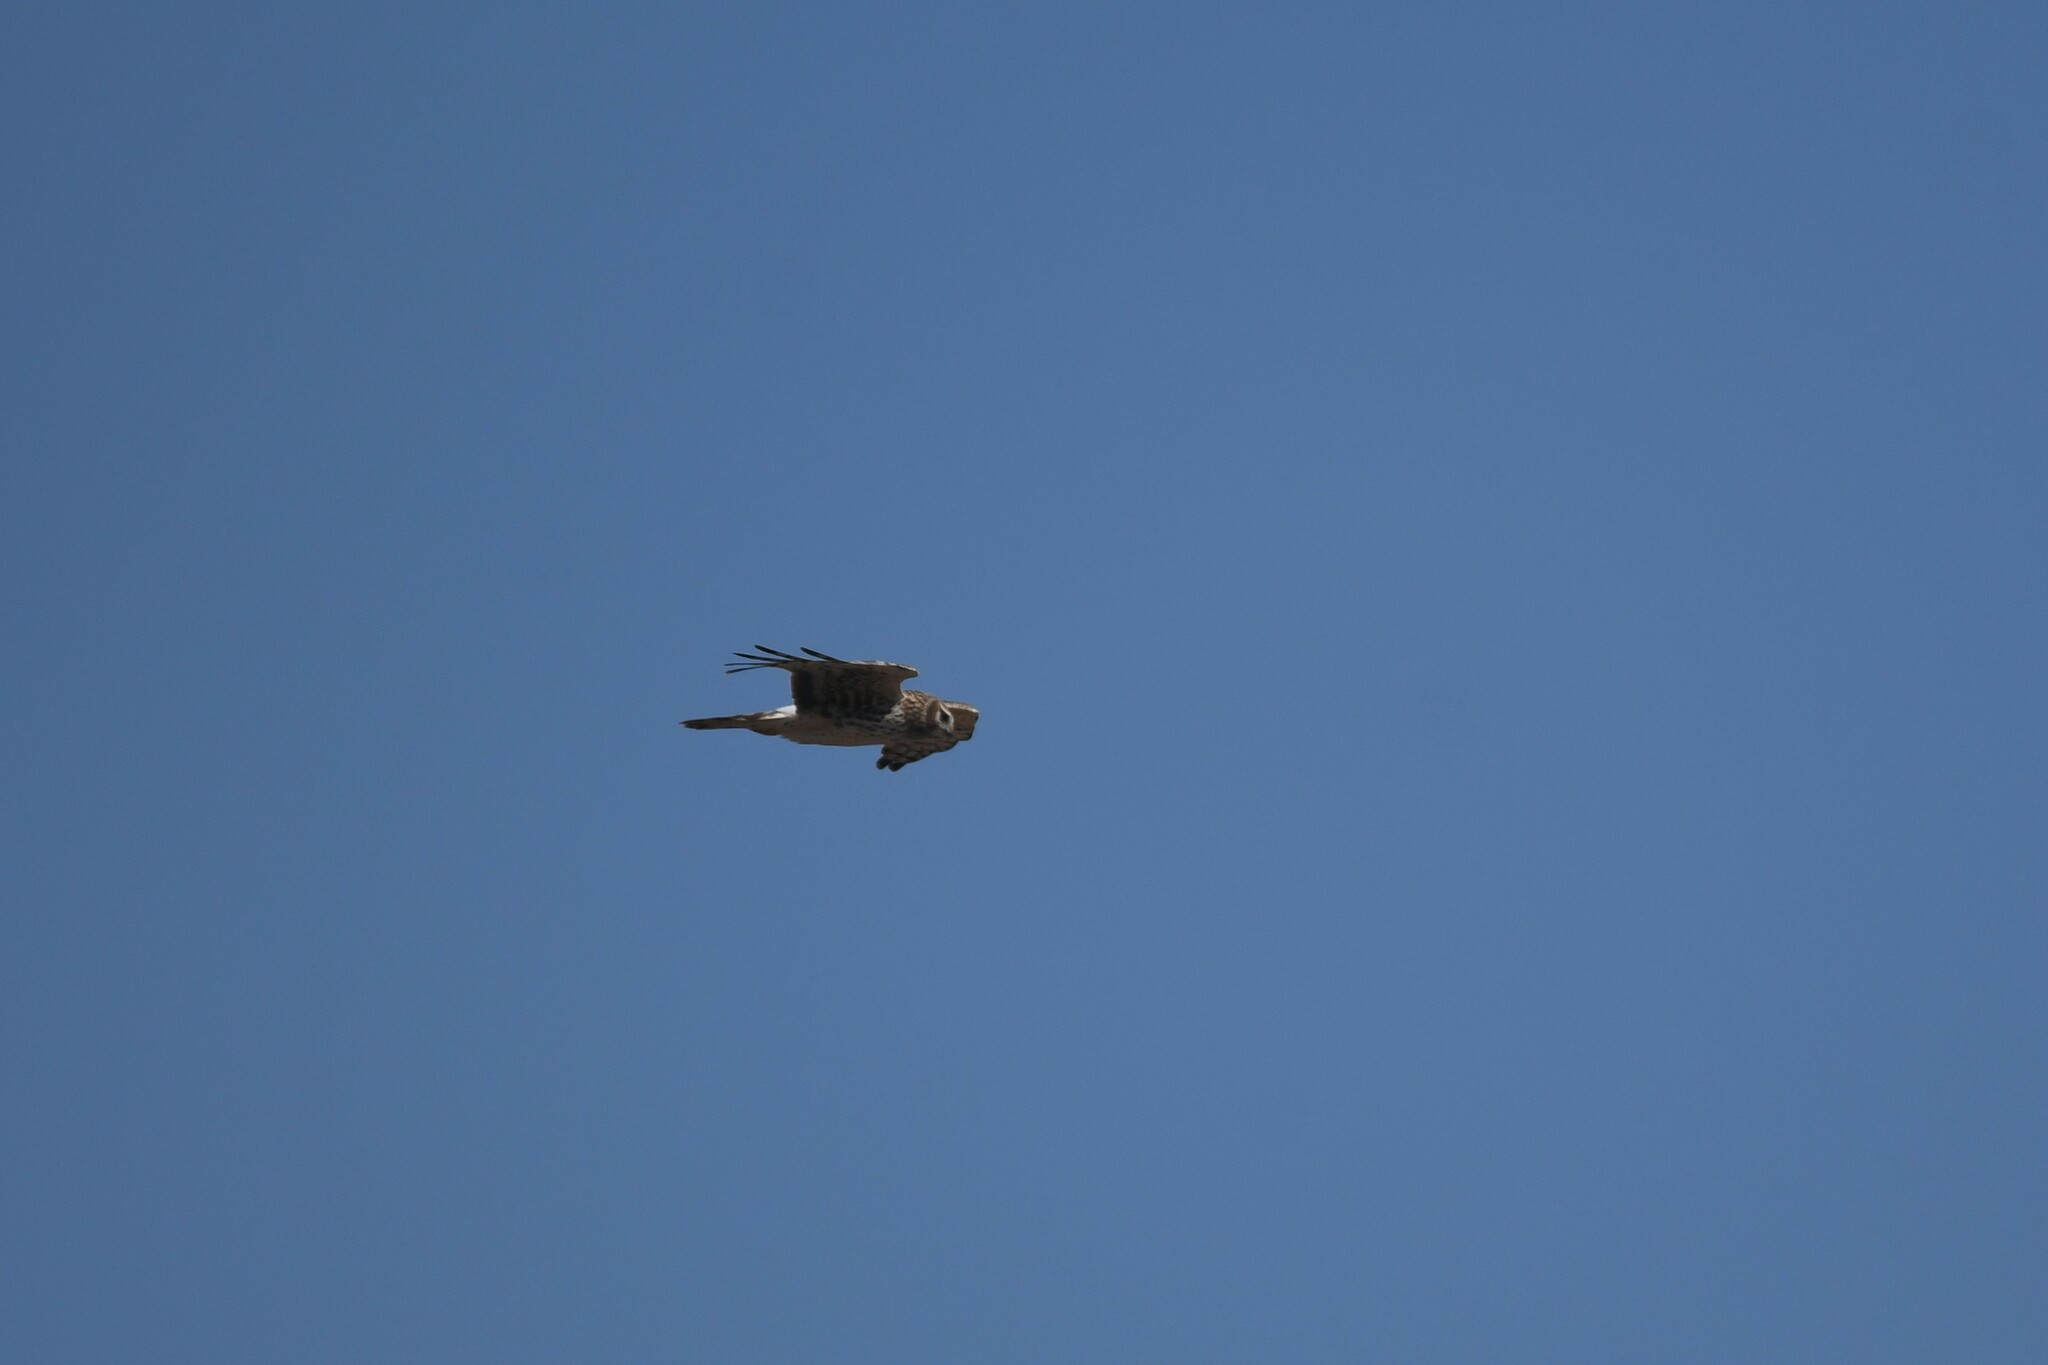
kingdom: Animalia
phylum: Chordata
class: Aves
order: Accipitriformes
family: Accipitridae
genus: Circus
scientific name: Circus cyaneus
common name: Hen harrier
